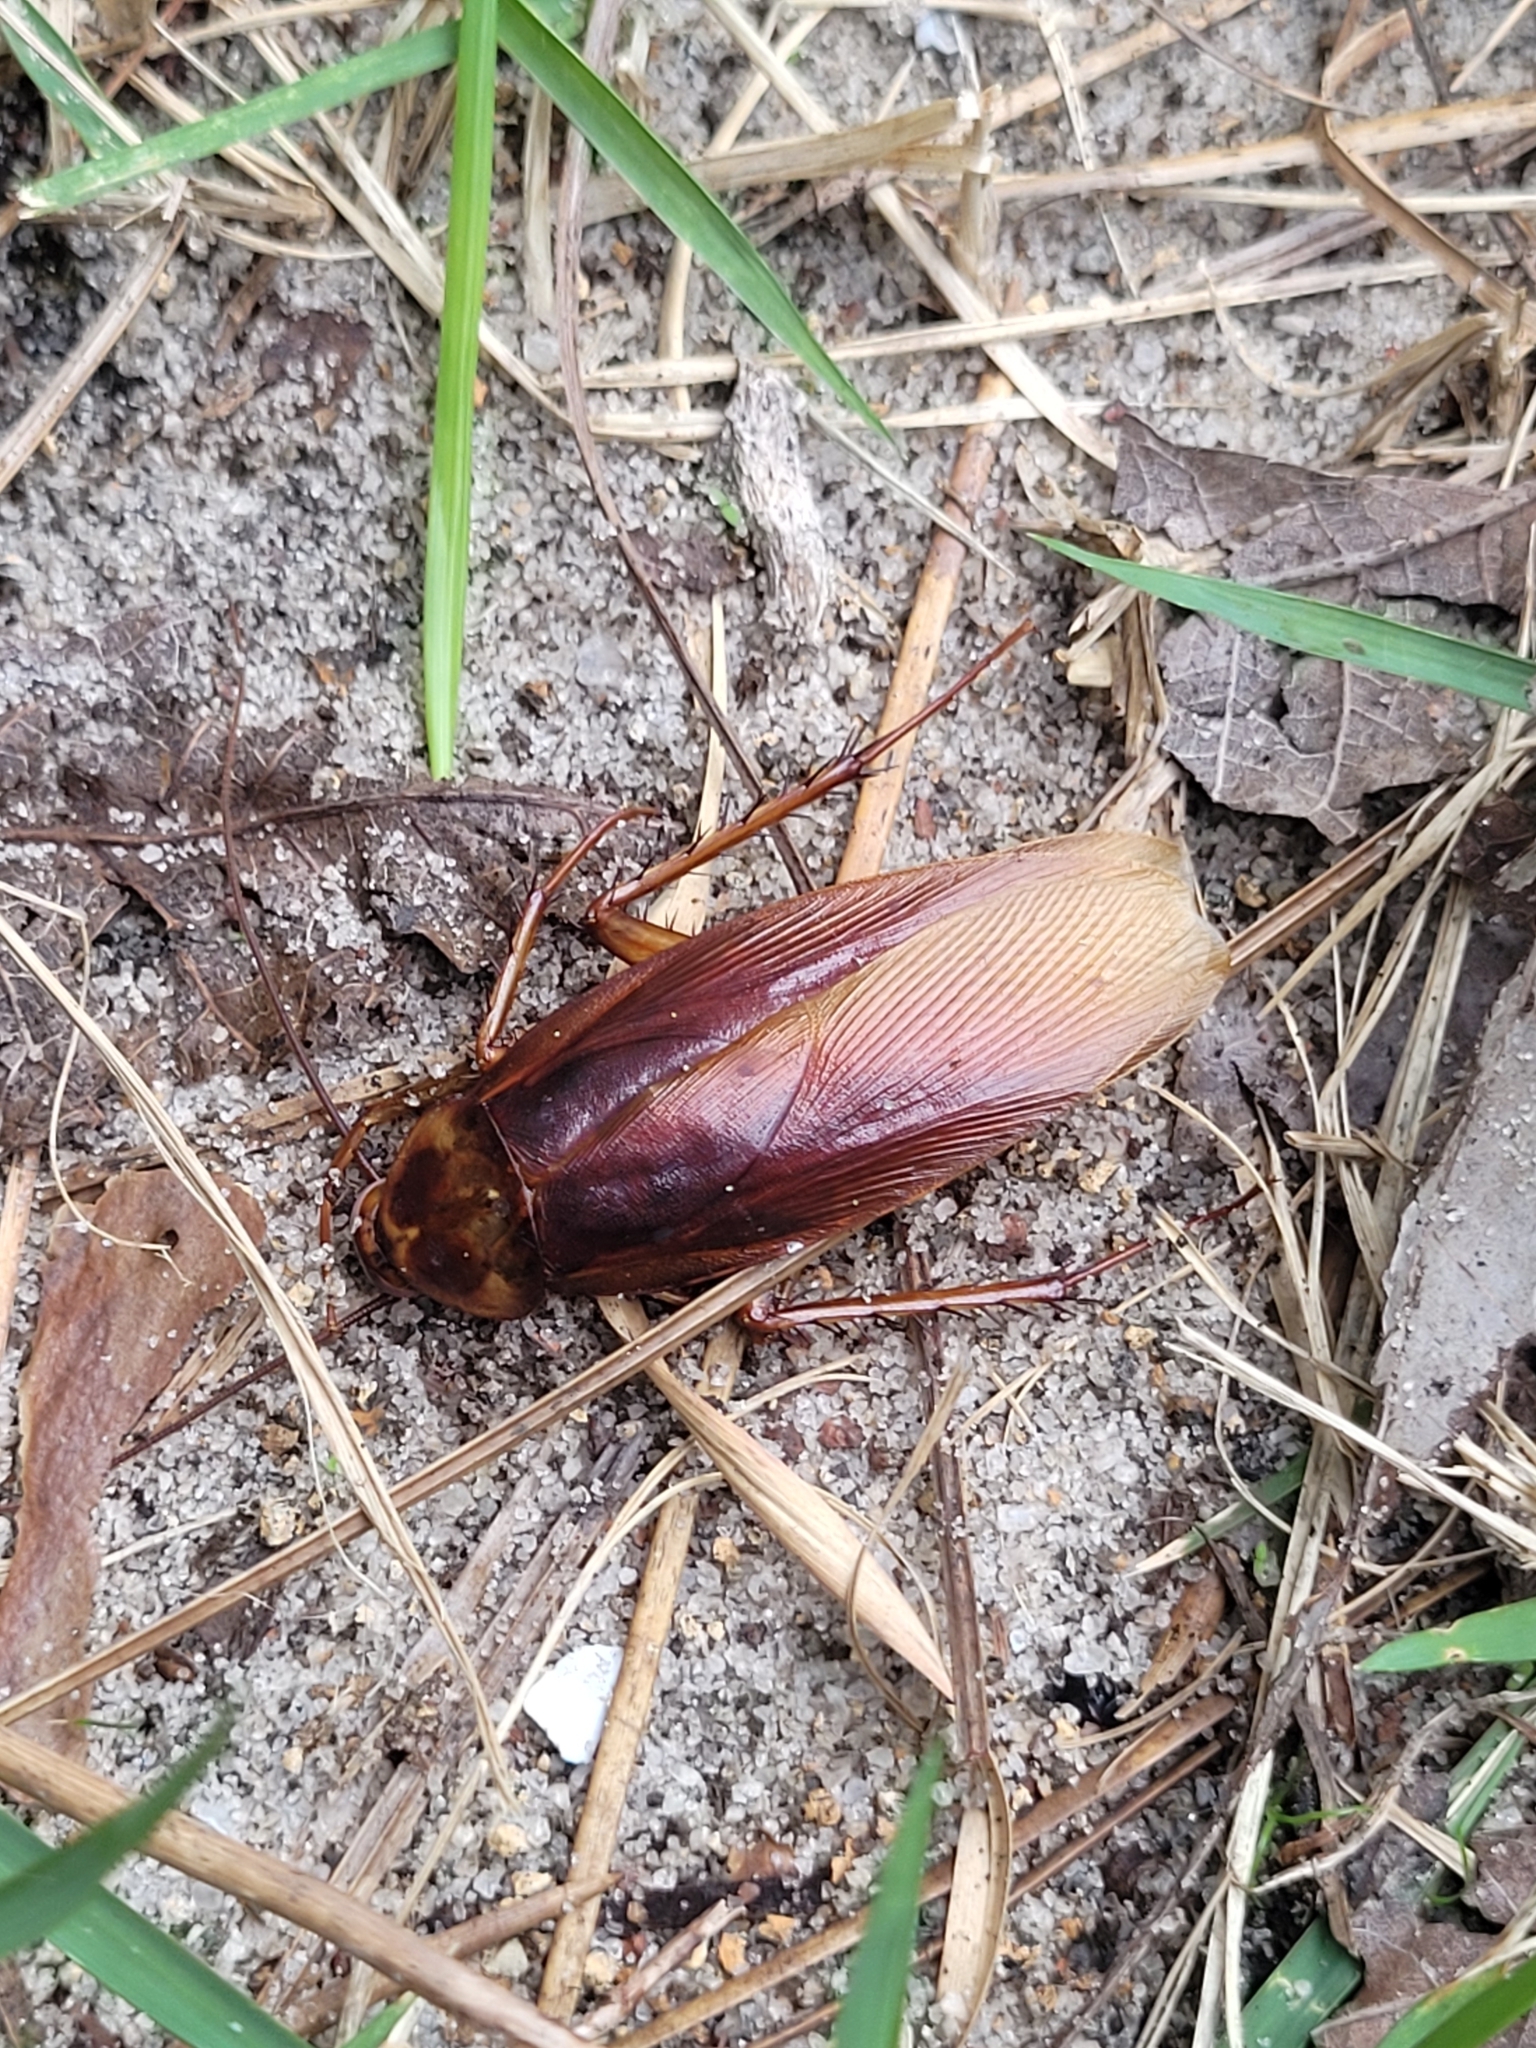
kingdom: Animalia
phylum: Arthropoda
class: Insecta
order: Blattodea
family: Blattidae
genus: Periplaneta
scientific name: Periplaneta americana
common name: American cockroach
